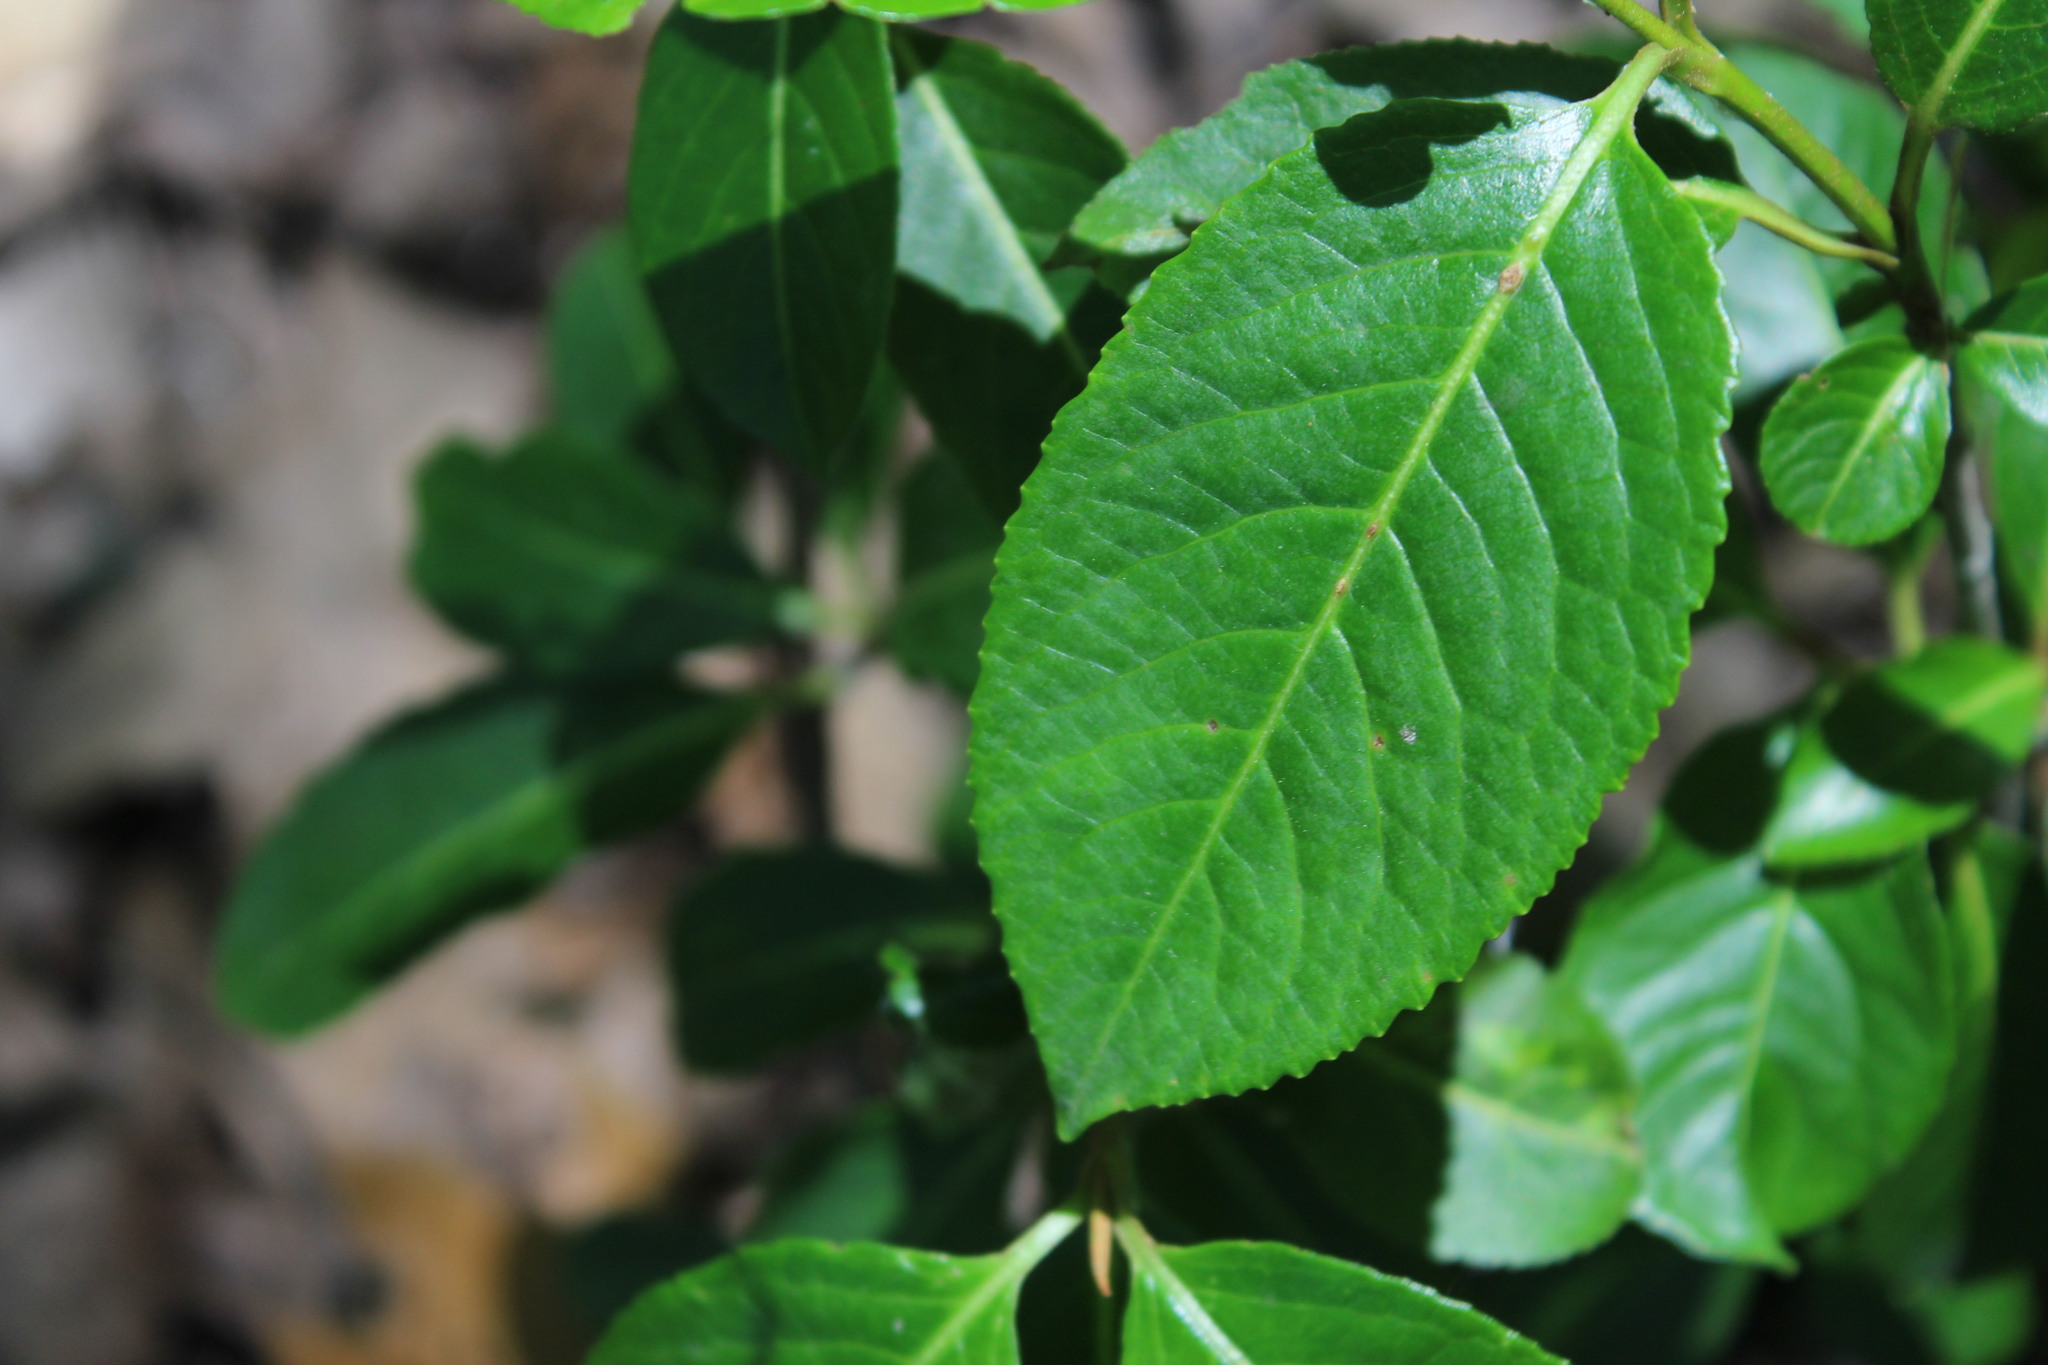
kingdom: Plantae
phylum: Tracheophyta
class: Magnoliopsida
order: Dipsacales
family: Viburnaceae
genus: Viburnum
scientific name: Viburnum cassinoides
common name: Swamp haw
